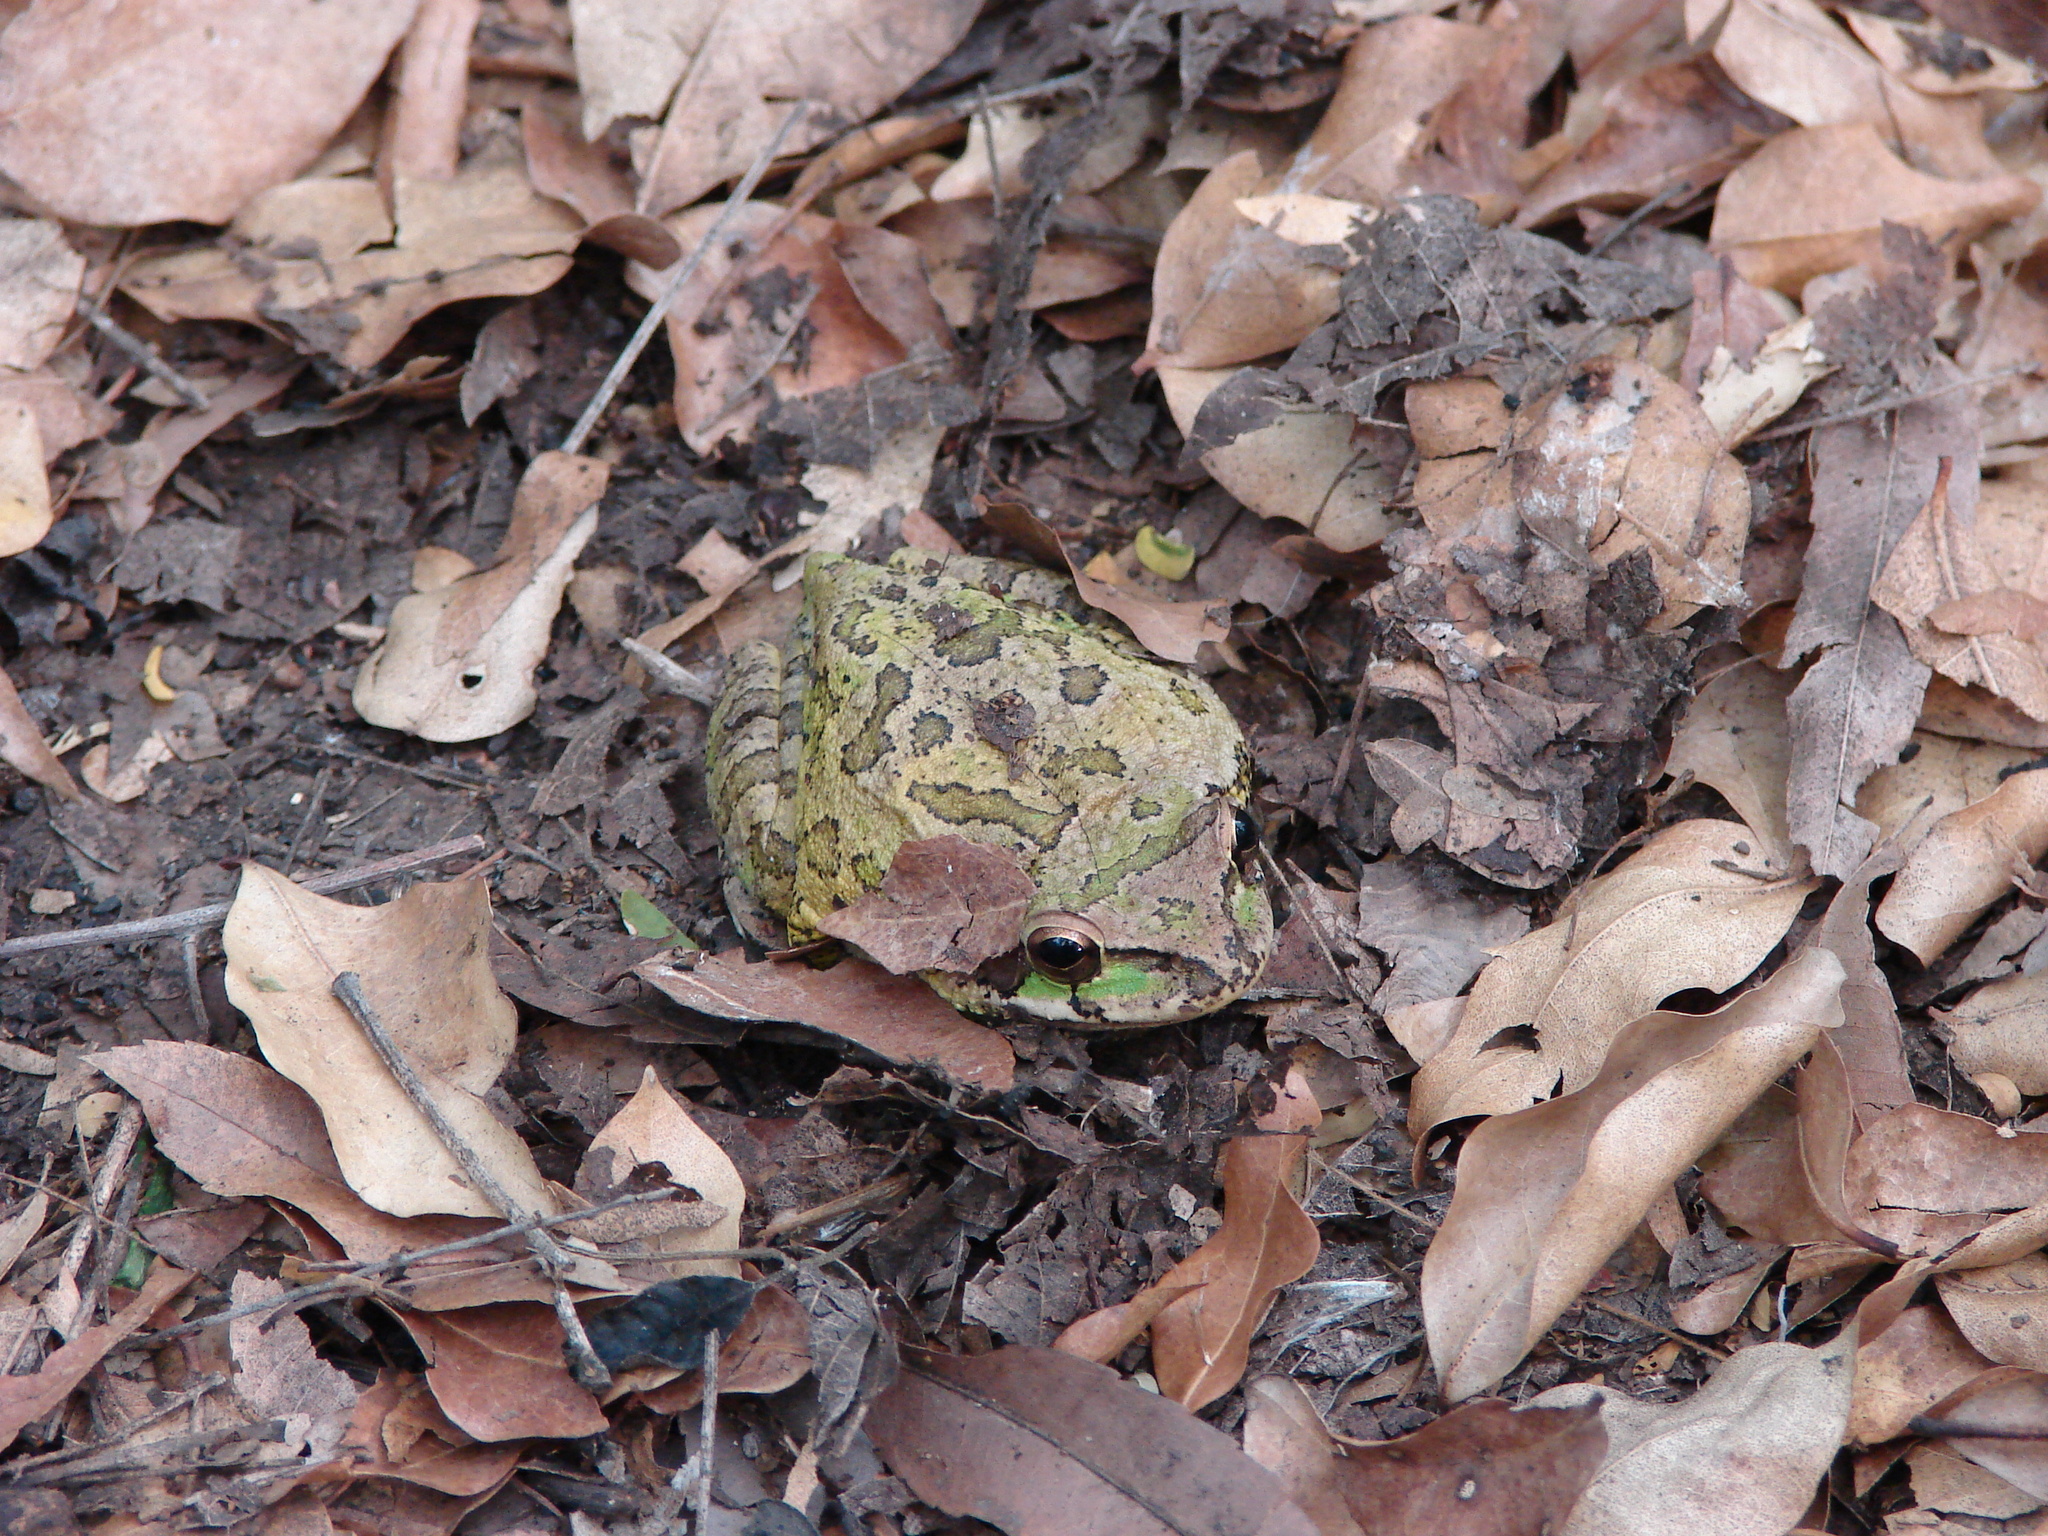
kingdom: Animalia
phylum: Chordata
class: Amphibia
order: Anura
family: Hylidae
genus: Smilisca
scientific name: Smilisca baudinii
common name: Mexican smilisca
